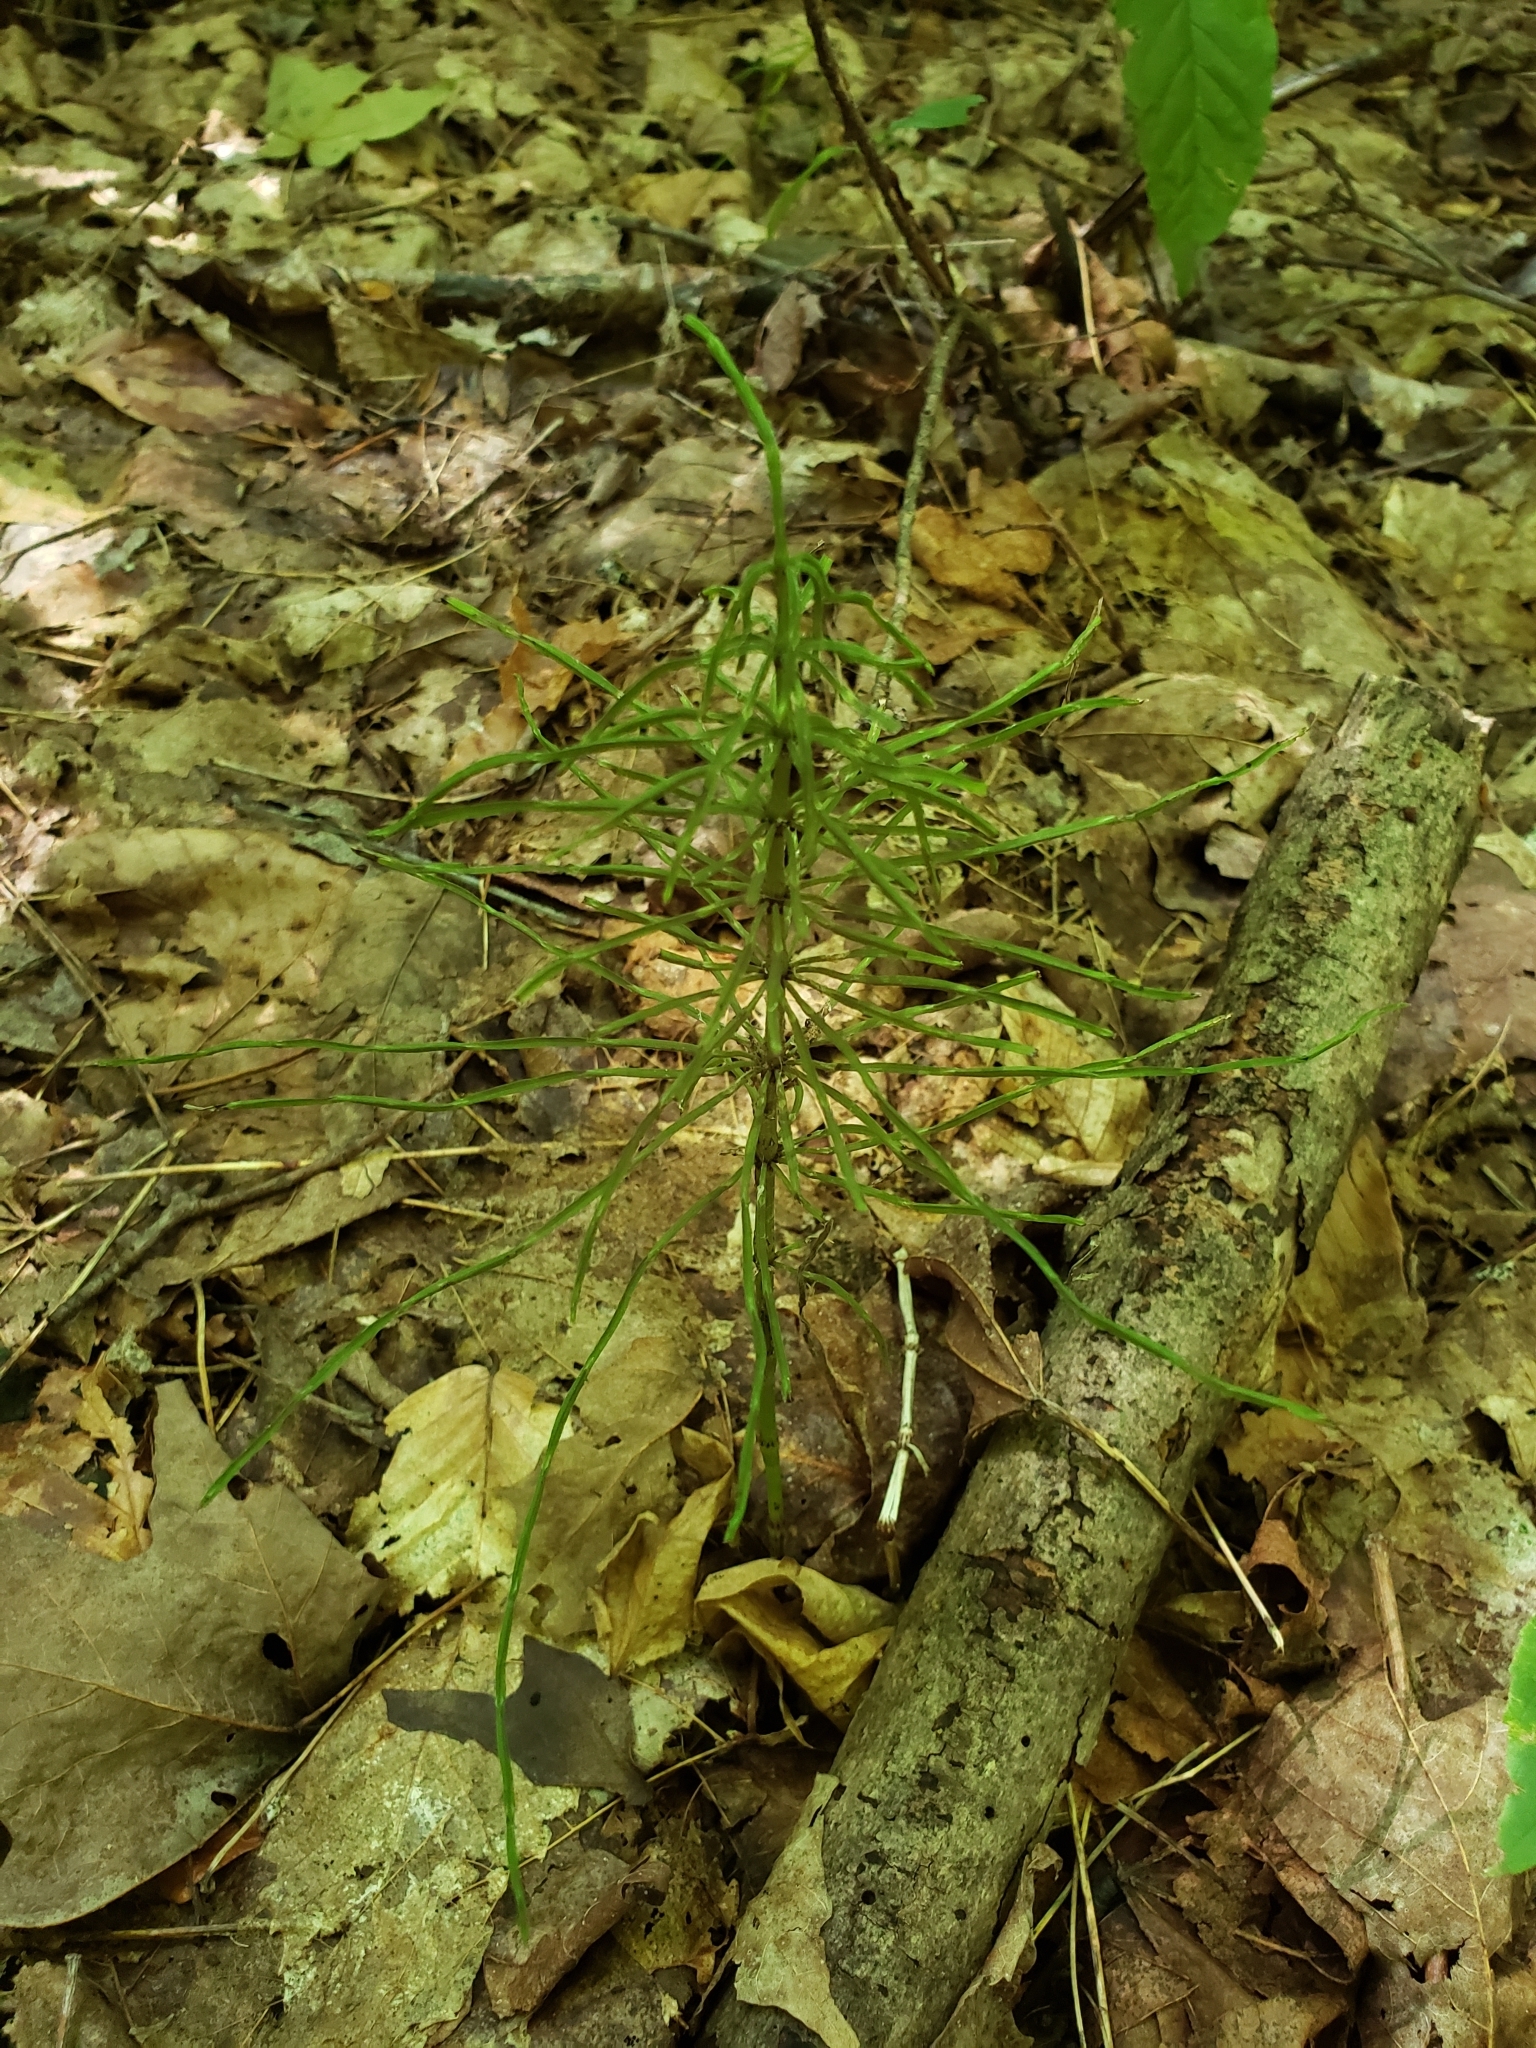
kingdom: Plantae
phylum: Tracheophyta
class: Polypodiopsida
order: Equisetales
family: Equisetaceae
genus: Equisetum
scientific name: Equisetum arvense
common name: Field horsetail
